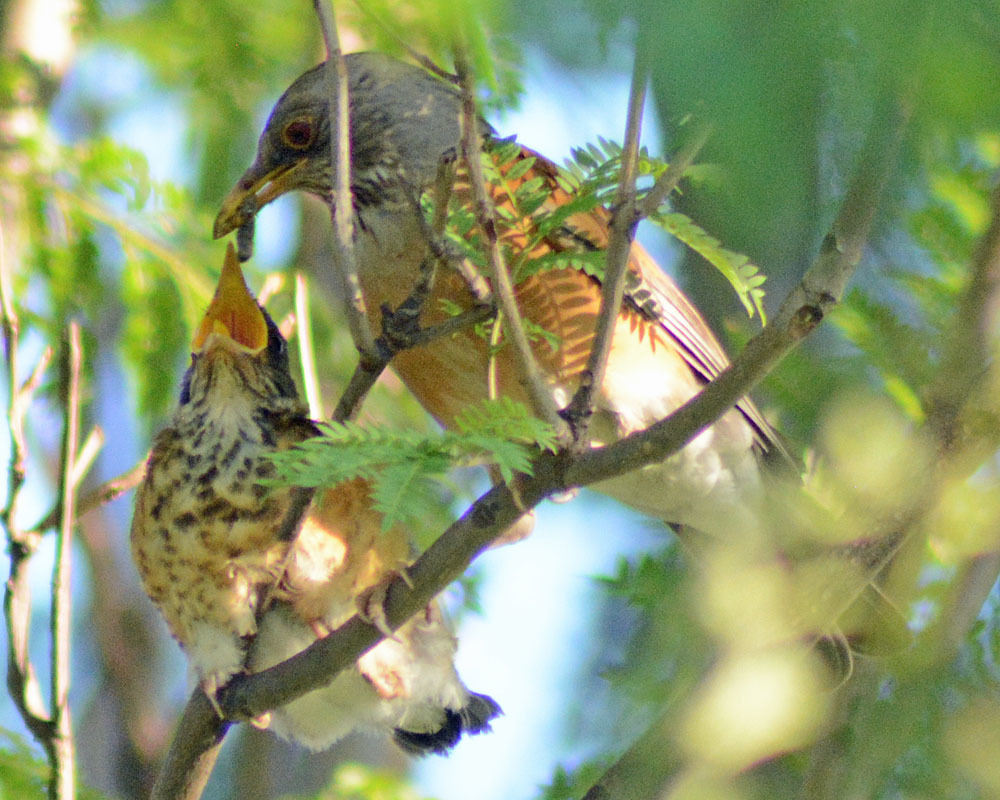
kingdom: Animalia
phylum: Chordata
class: Aves
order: Passeriformes
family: Turdidae
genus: Turdus
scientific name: Turdus rufopalliatus
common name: Rufous-backed robin
